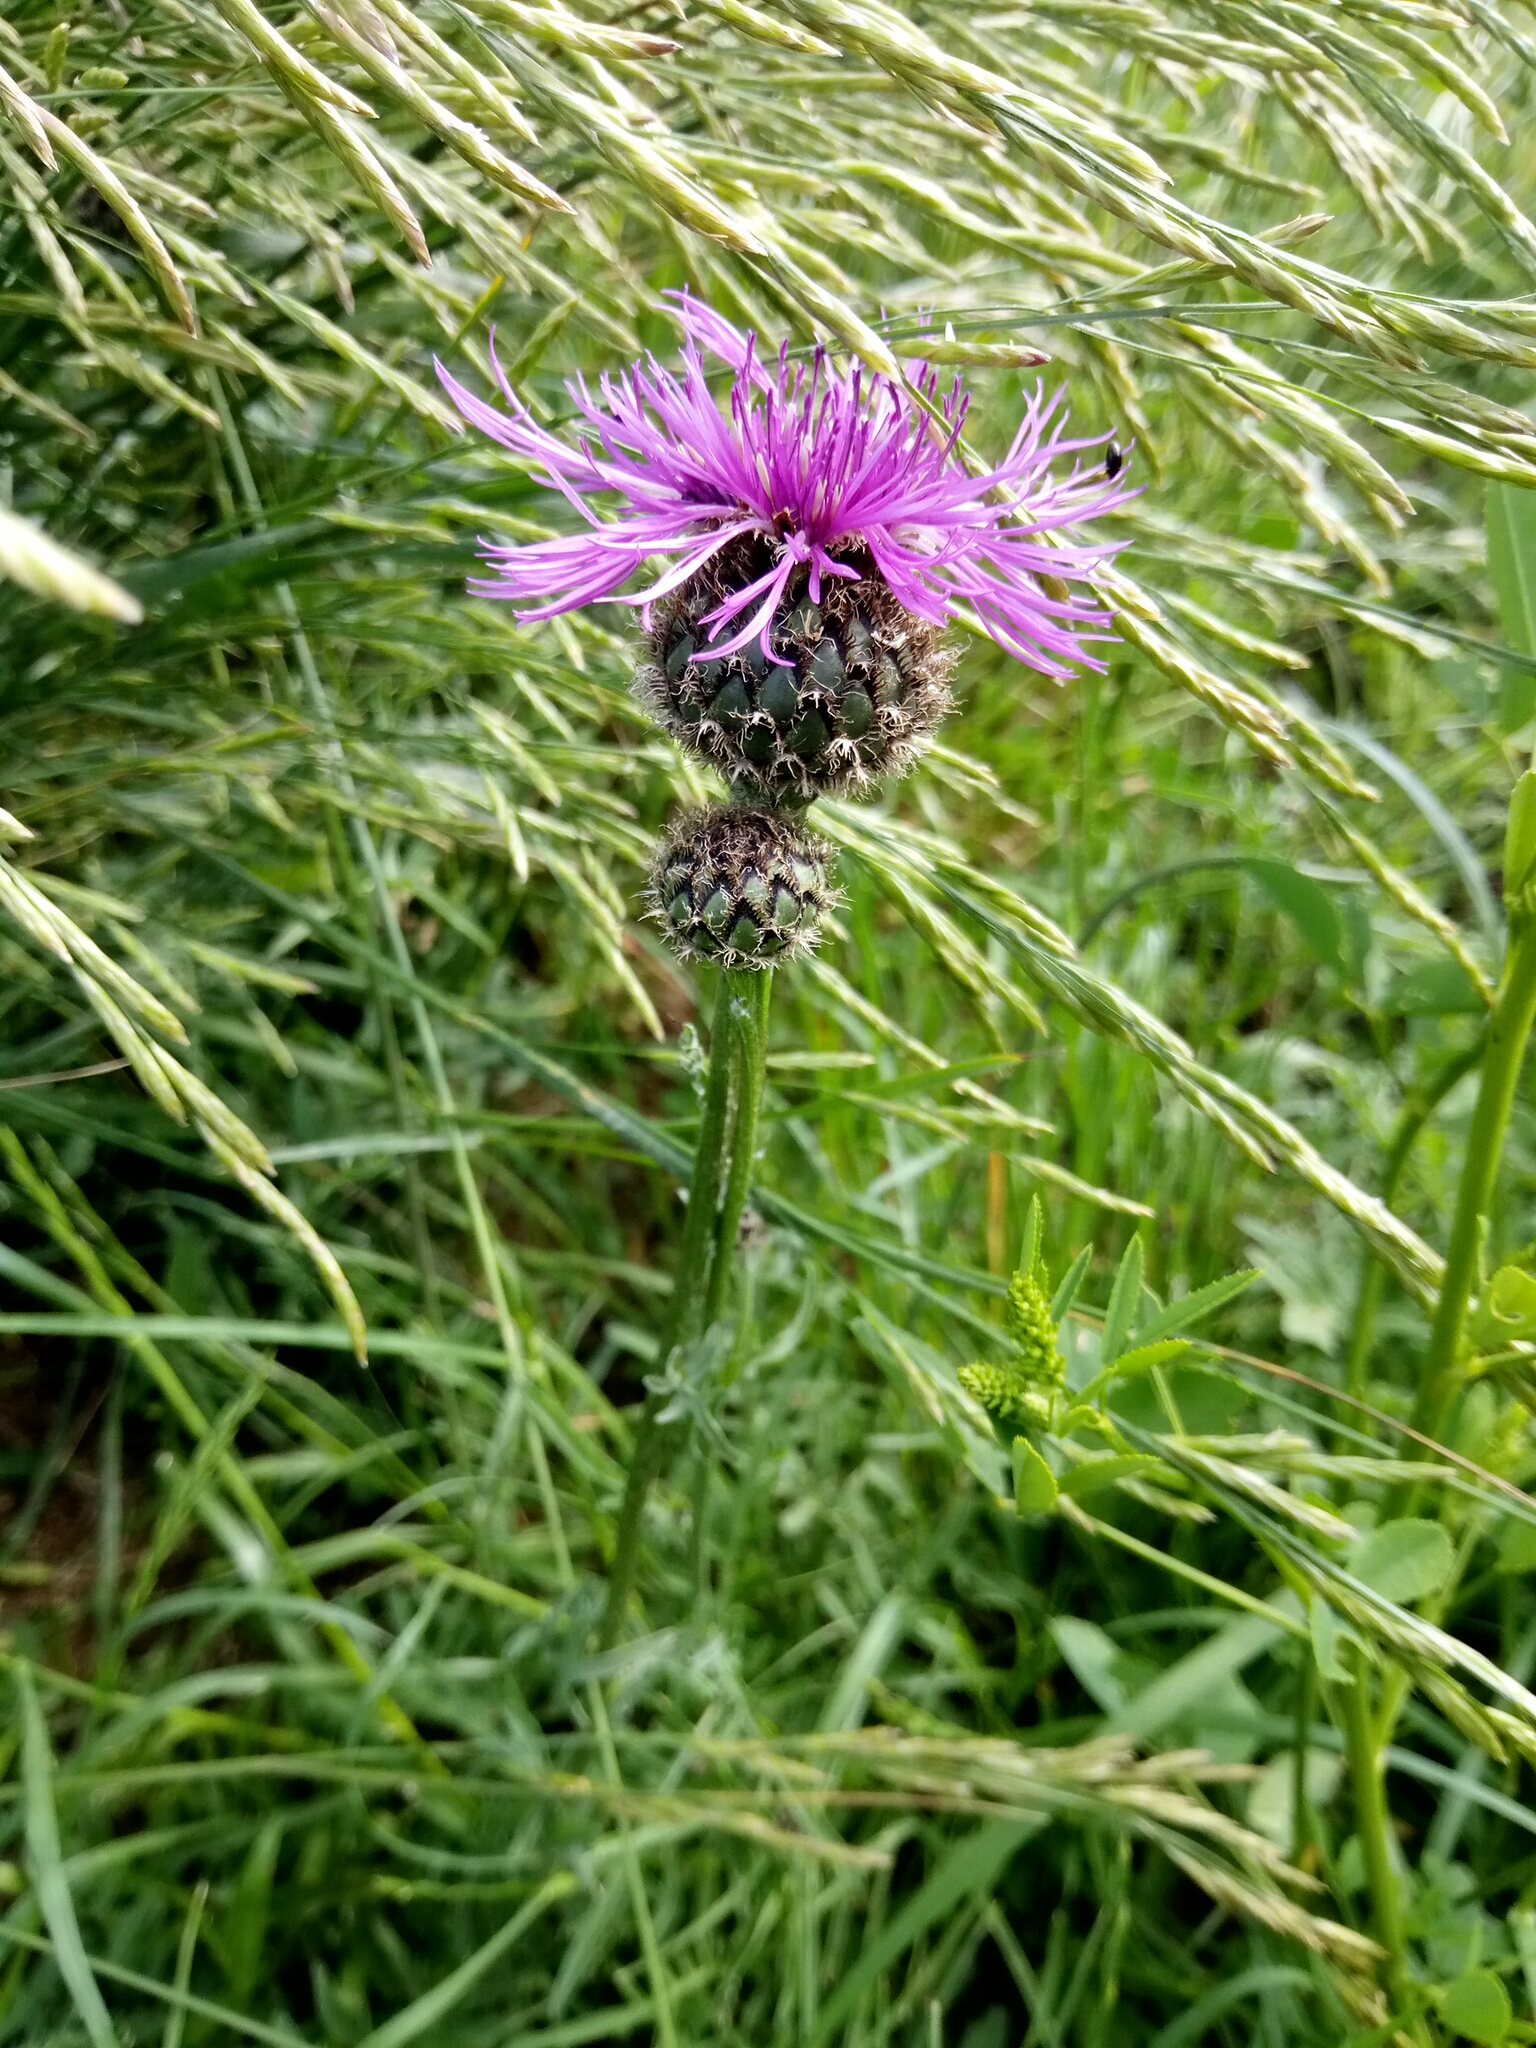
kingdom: Plantae
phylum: Tracheophyta
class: Magnoliopsida
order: Asterales
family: Asteraceae
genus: Centaurea
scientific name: Centaurea scabiosa
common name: Greater knapweed
